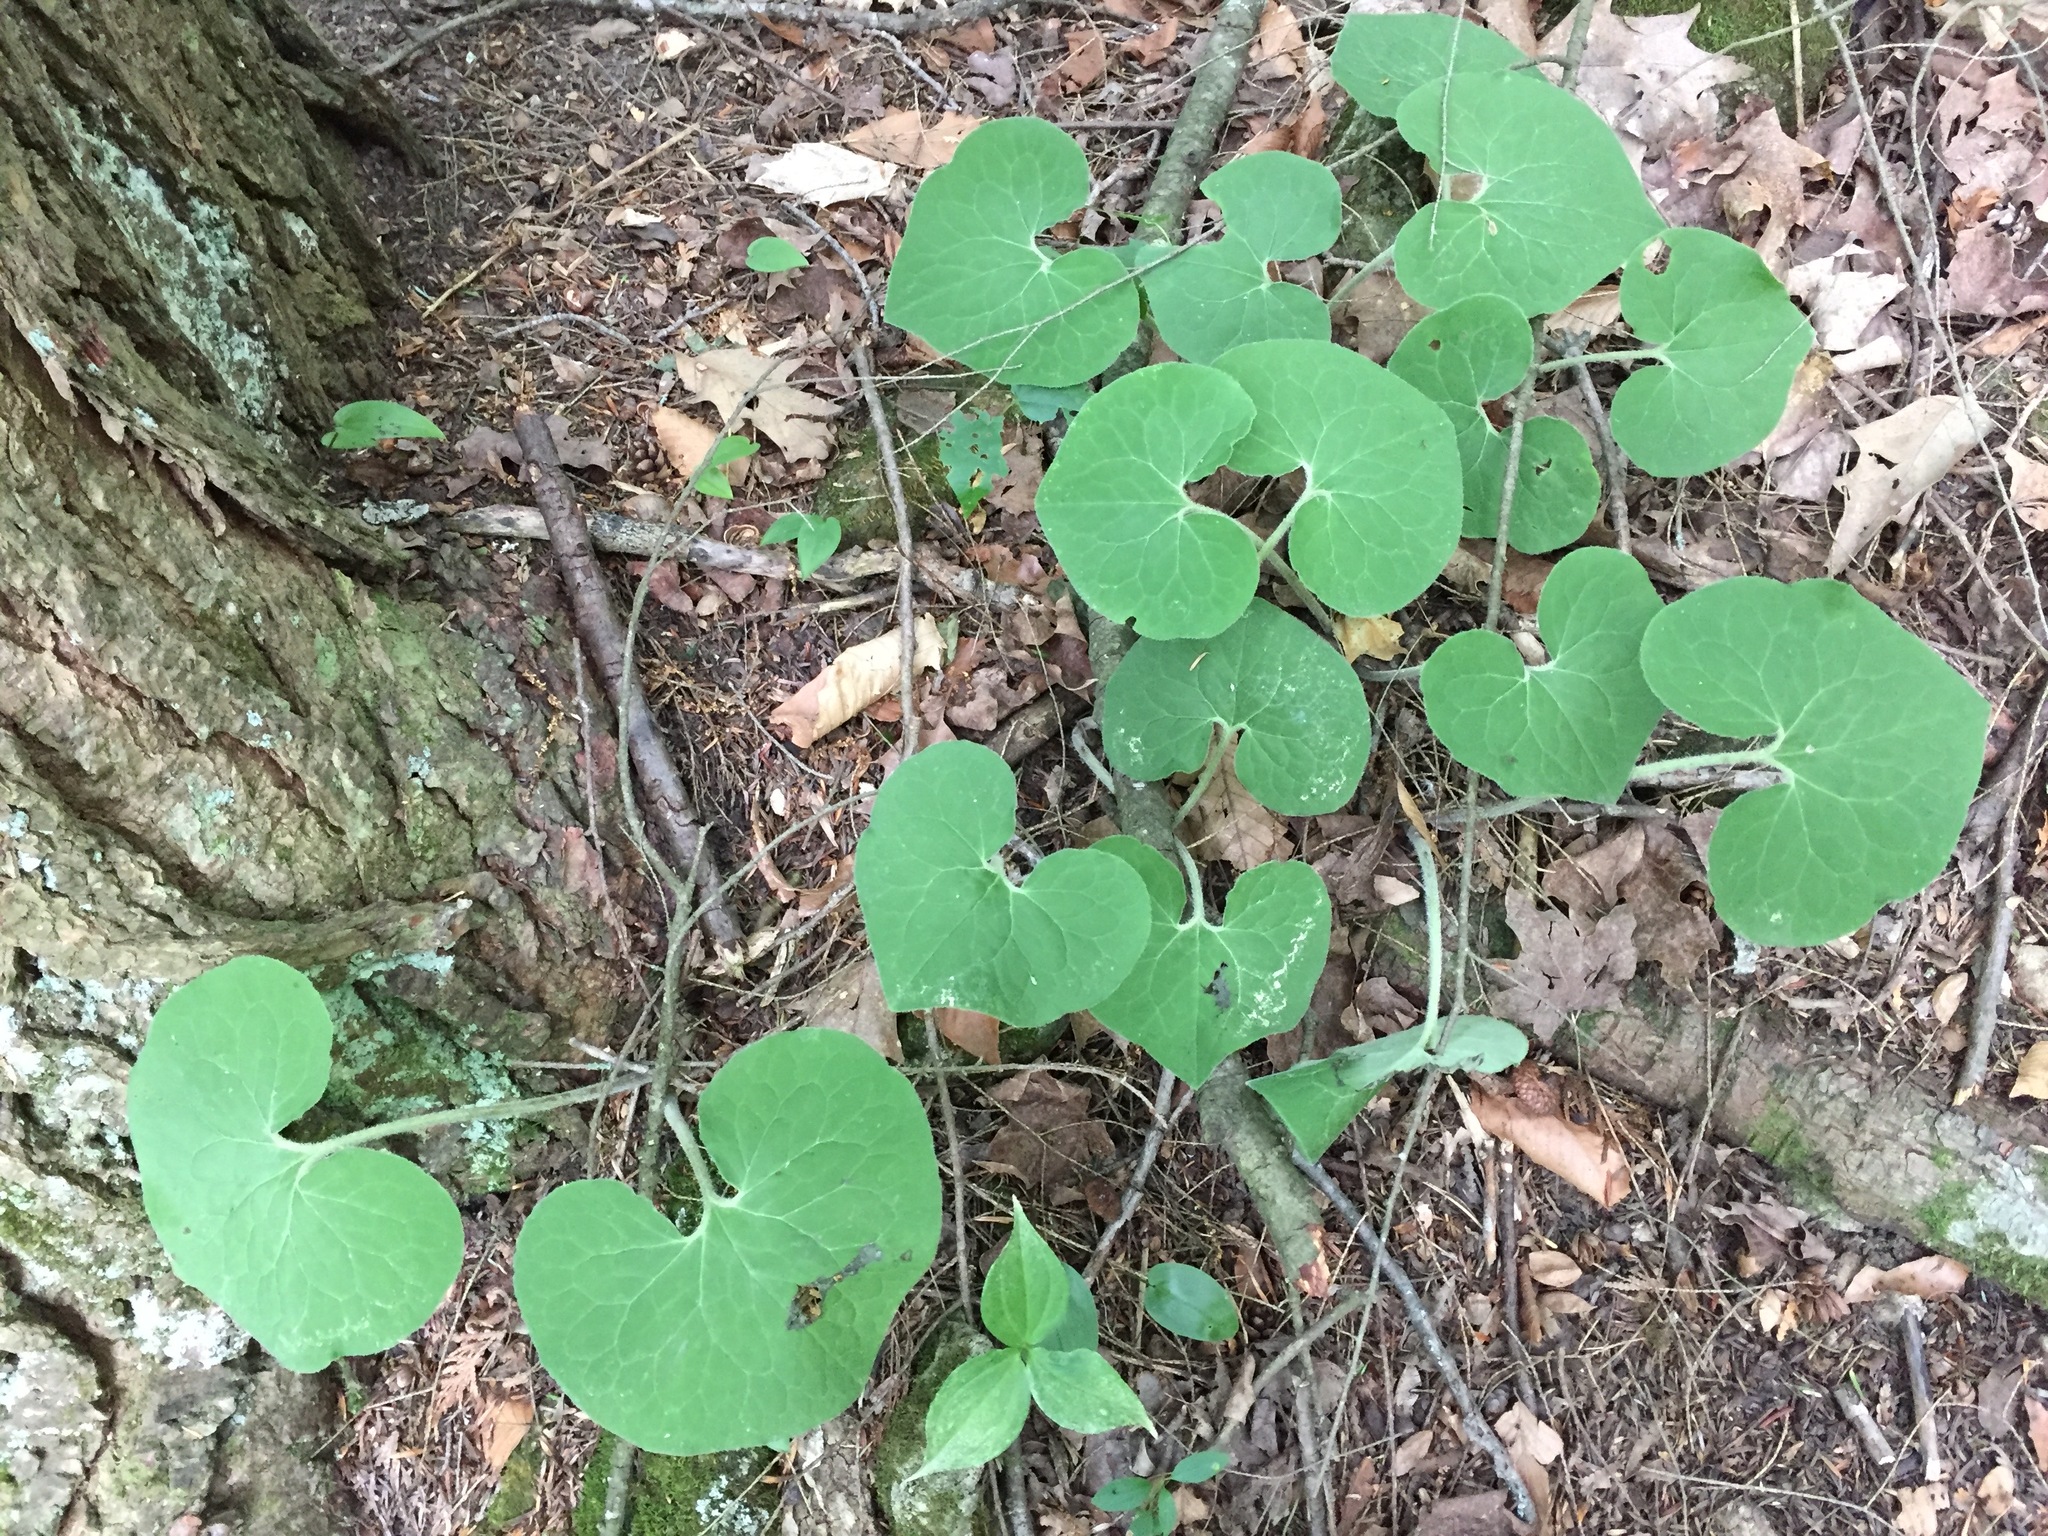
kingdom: Plantae
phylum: Tracheophyta
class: Magnoliopsida
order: Piperales
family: Aristolochiaceae
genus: Asarum
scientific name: Asarum canadense
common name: Wild ginger
